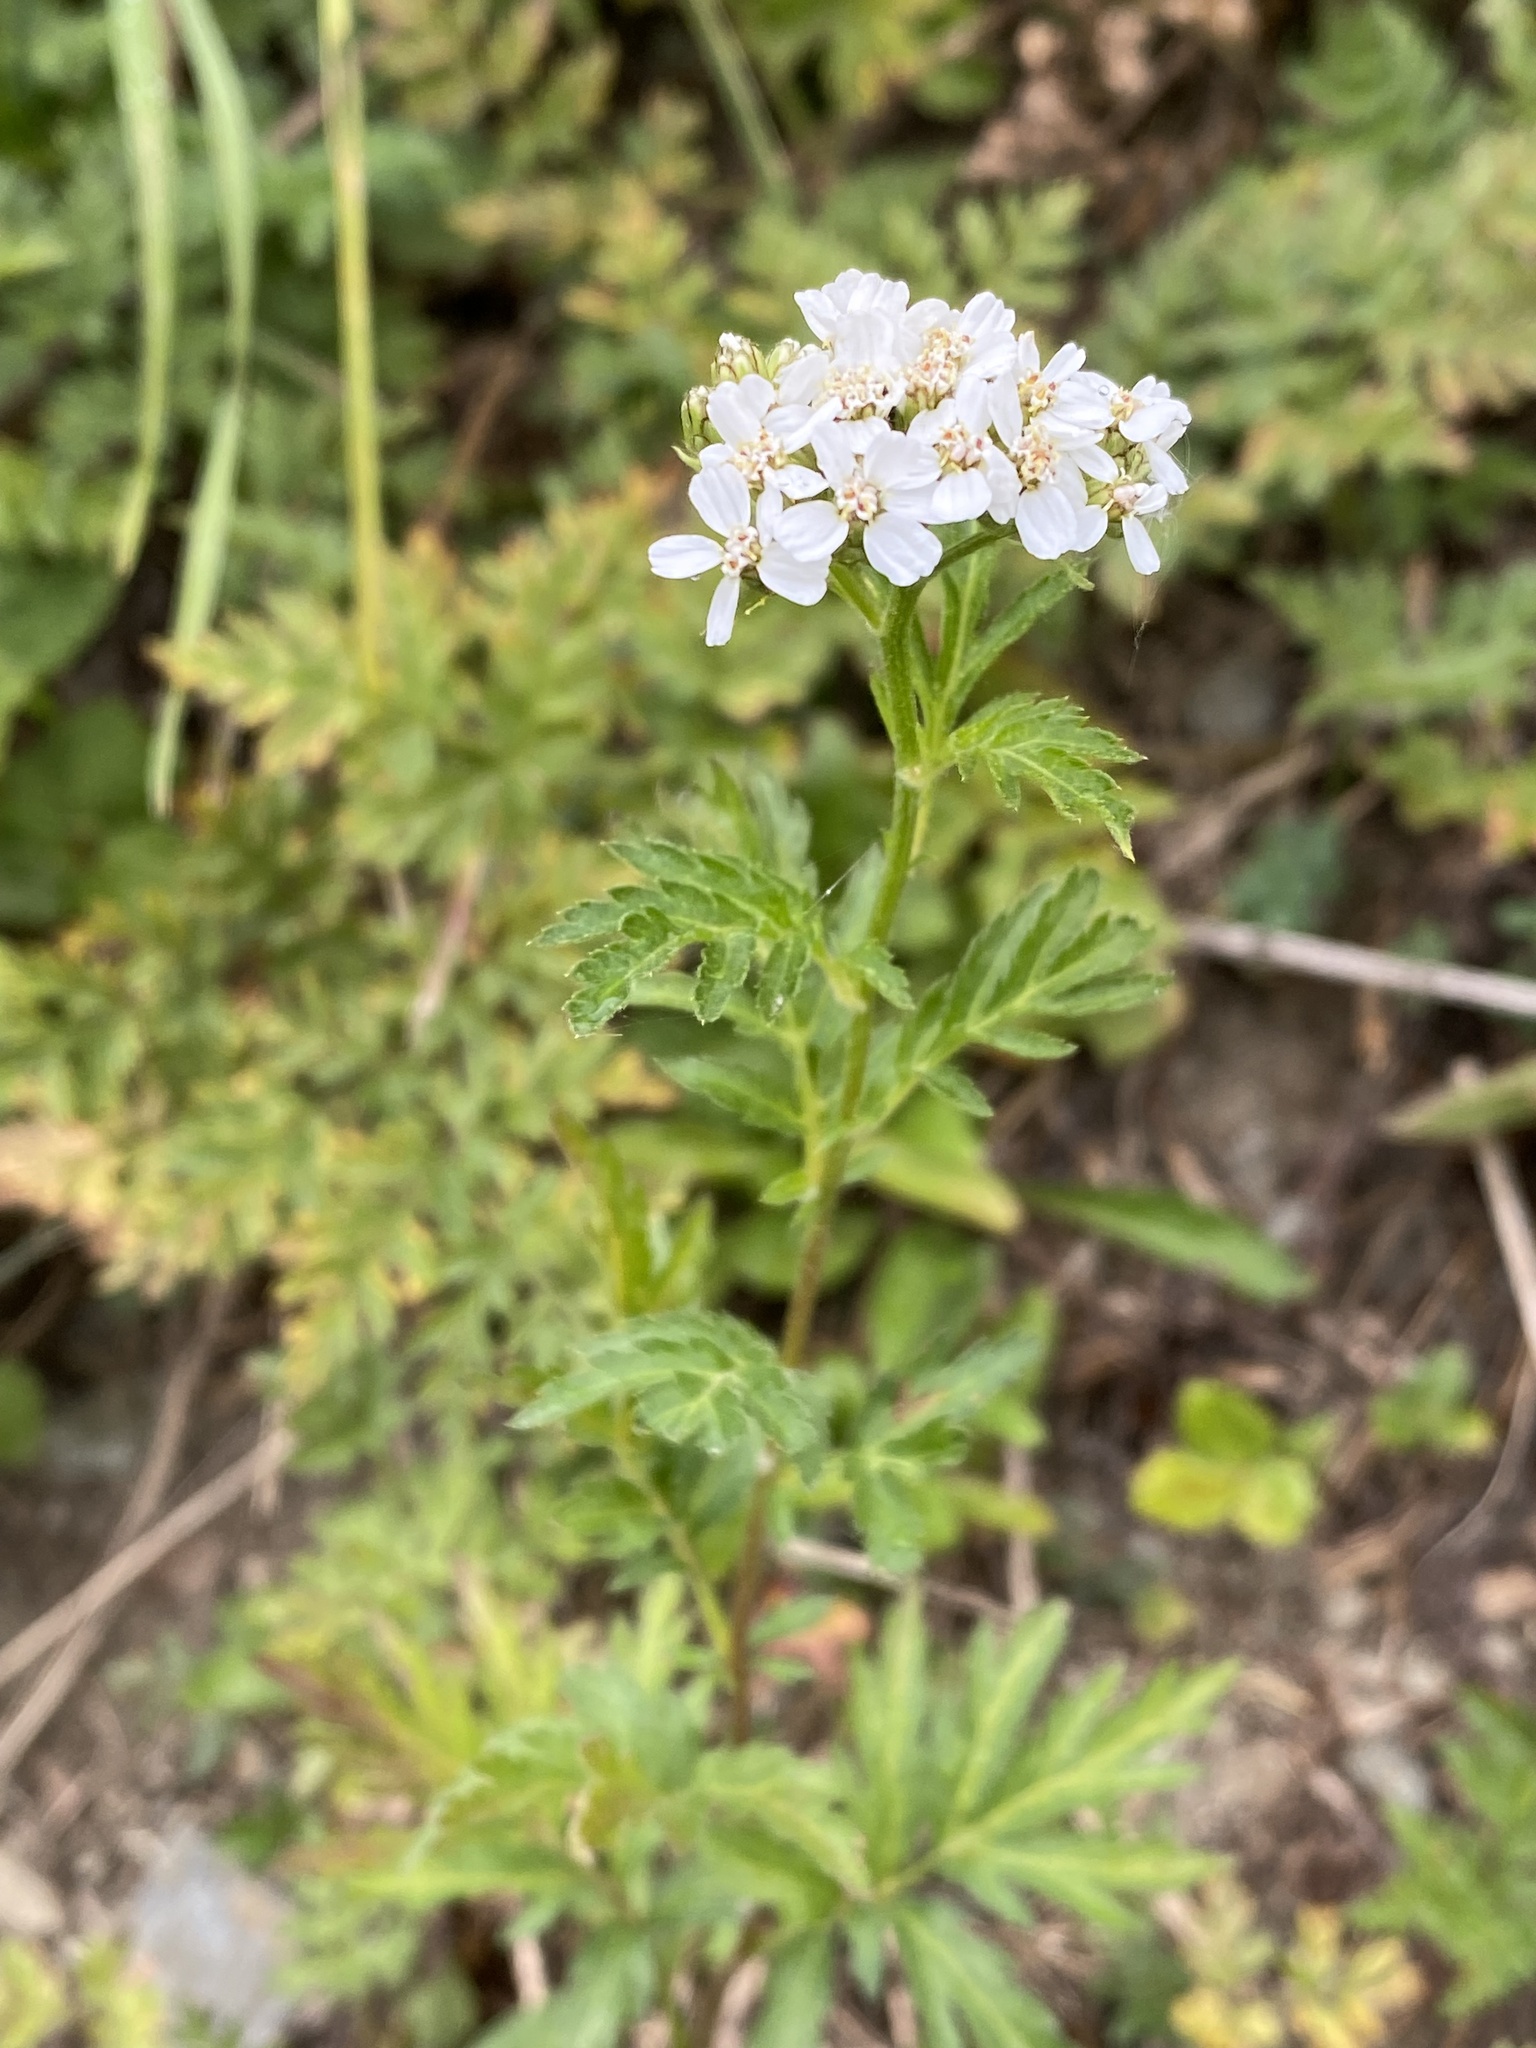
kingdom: Plantae
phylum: Tracheophyta
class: Magnoliopsida
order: Asterales
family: Asteraceae
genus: Achillea
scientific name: Achillea macrophylla
